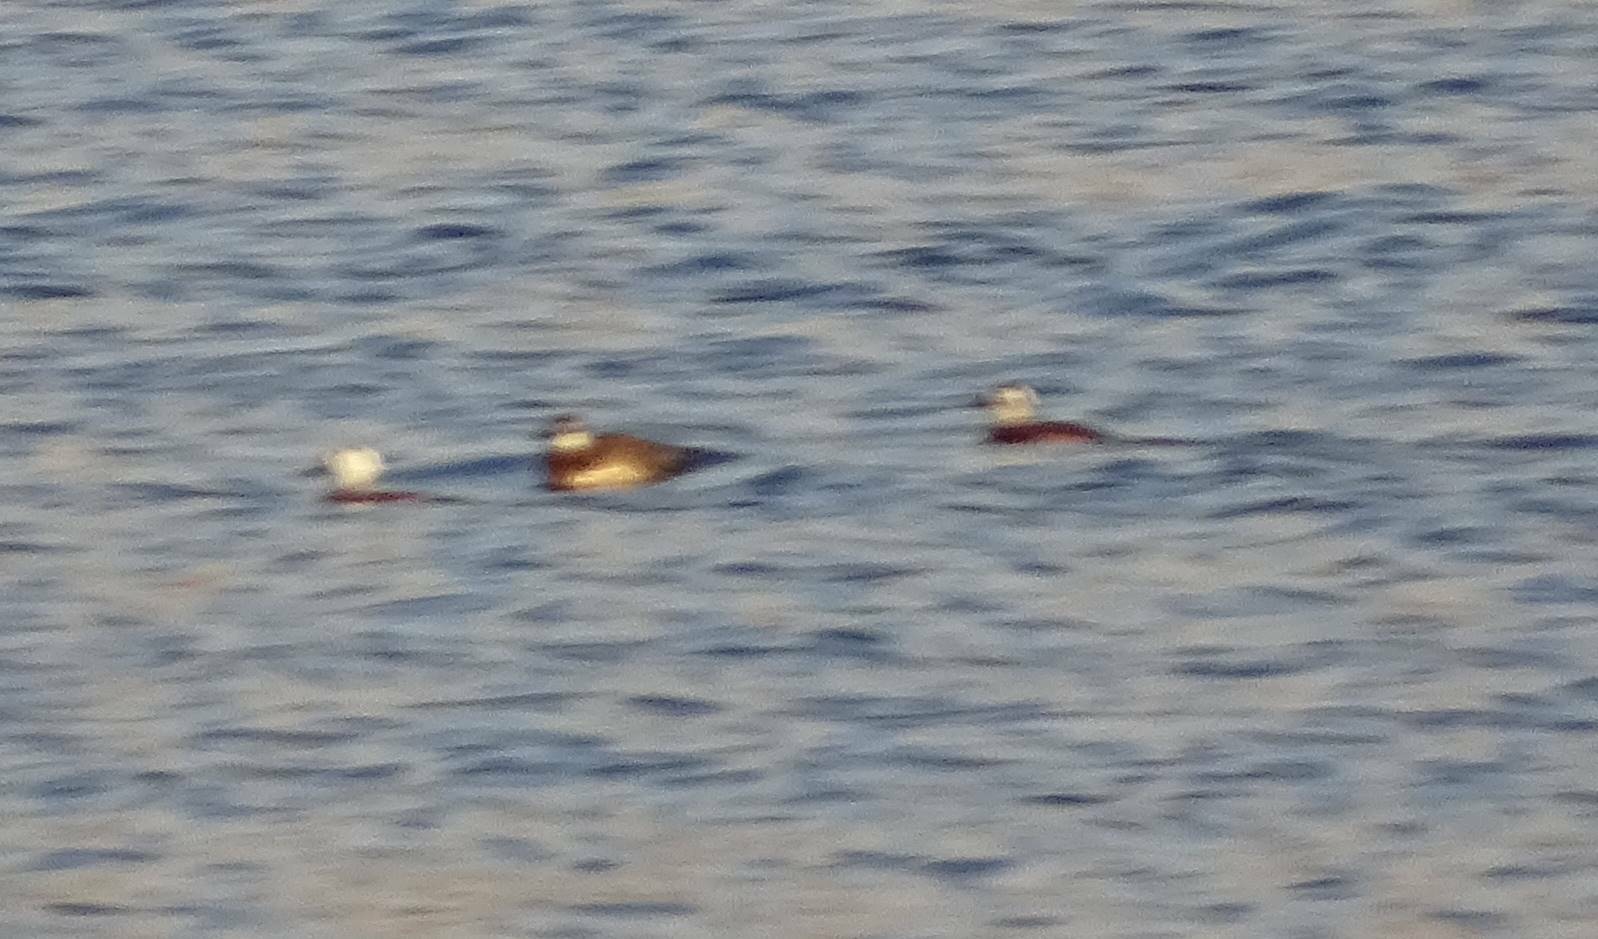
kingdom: Animalia
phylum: Chordata
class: Aves
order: Anseriformes
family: Anatidae
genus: Oxyura
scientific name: Oxyura leucocephala
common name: White-headed duck
